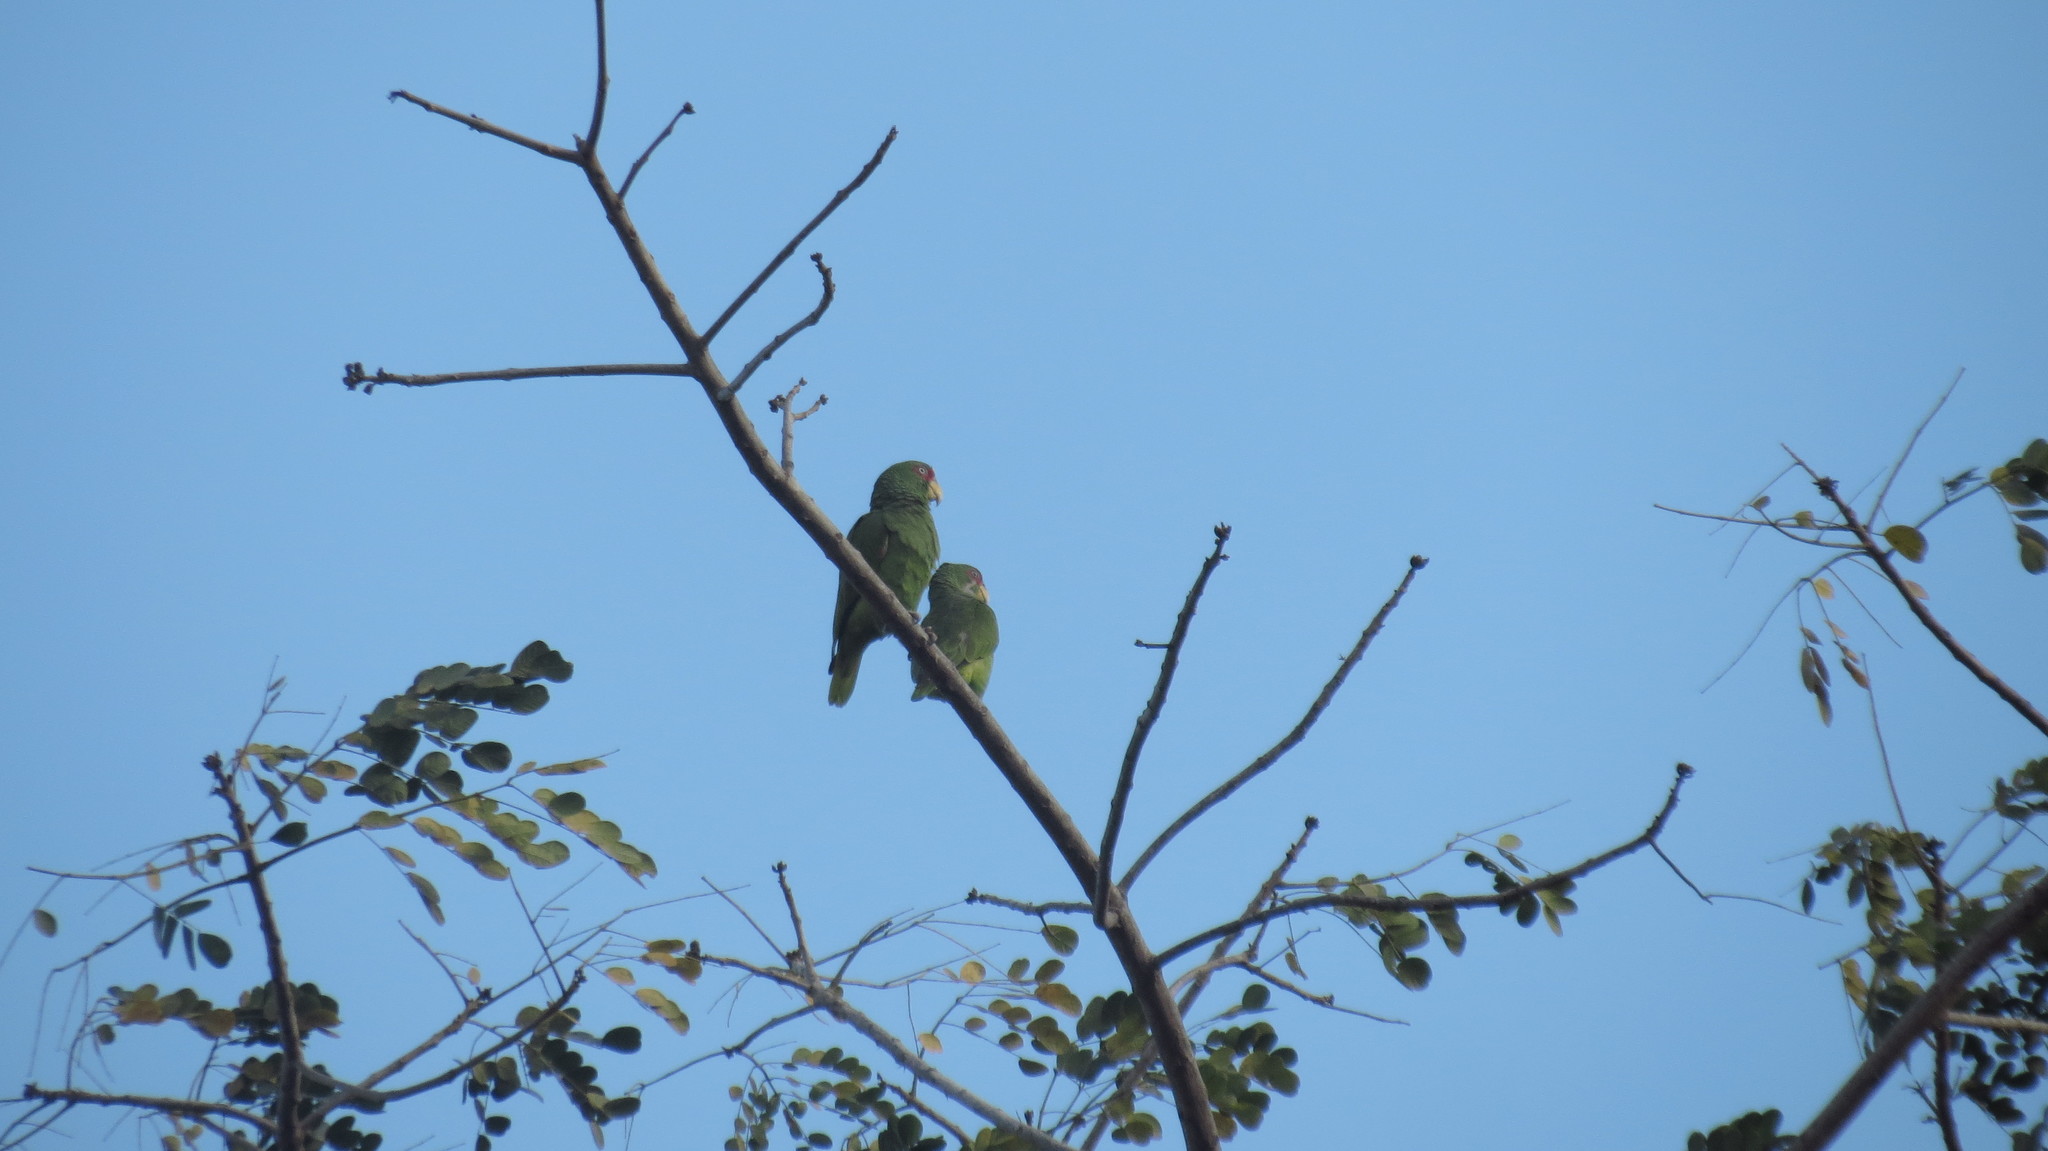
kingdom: Animalia
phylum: Chordata
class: Aves
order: Psittaciformes
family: Psittacidae
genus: Amazona
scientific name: Amazona albifrons
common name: White-fronted amazon
